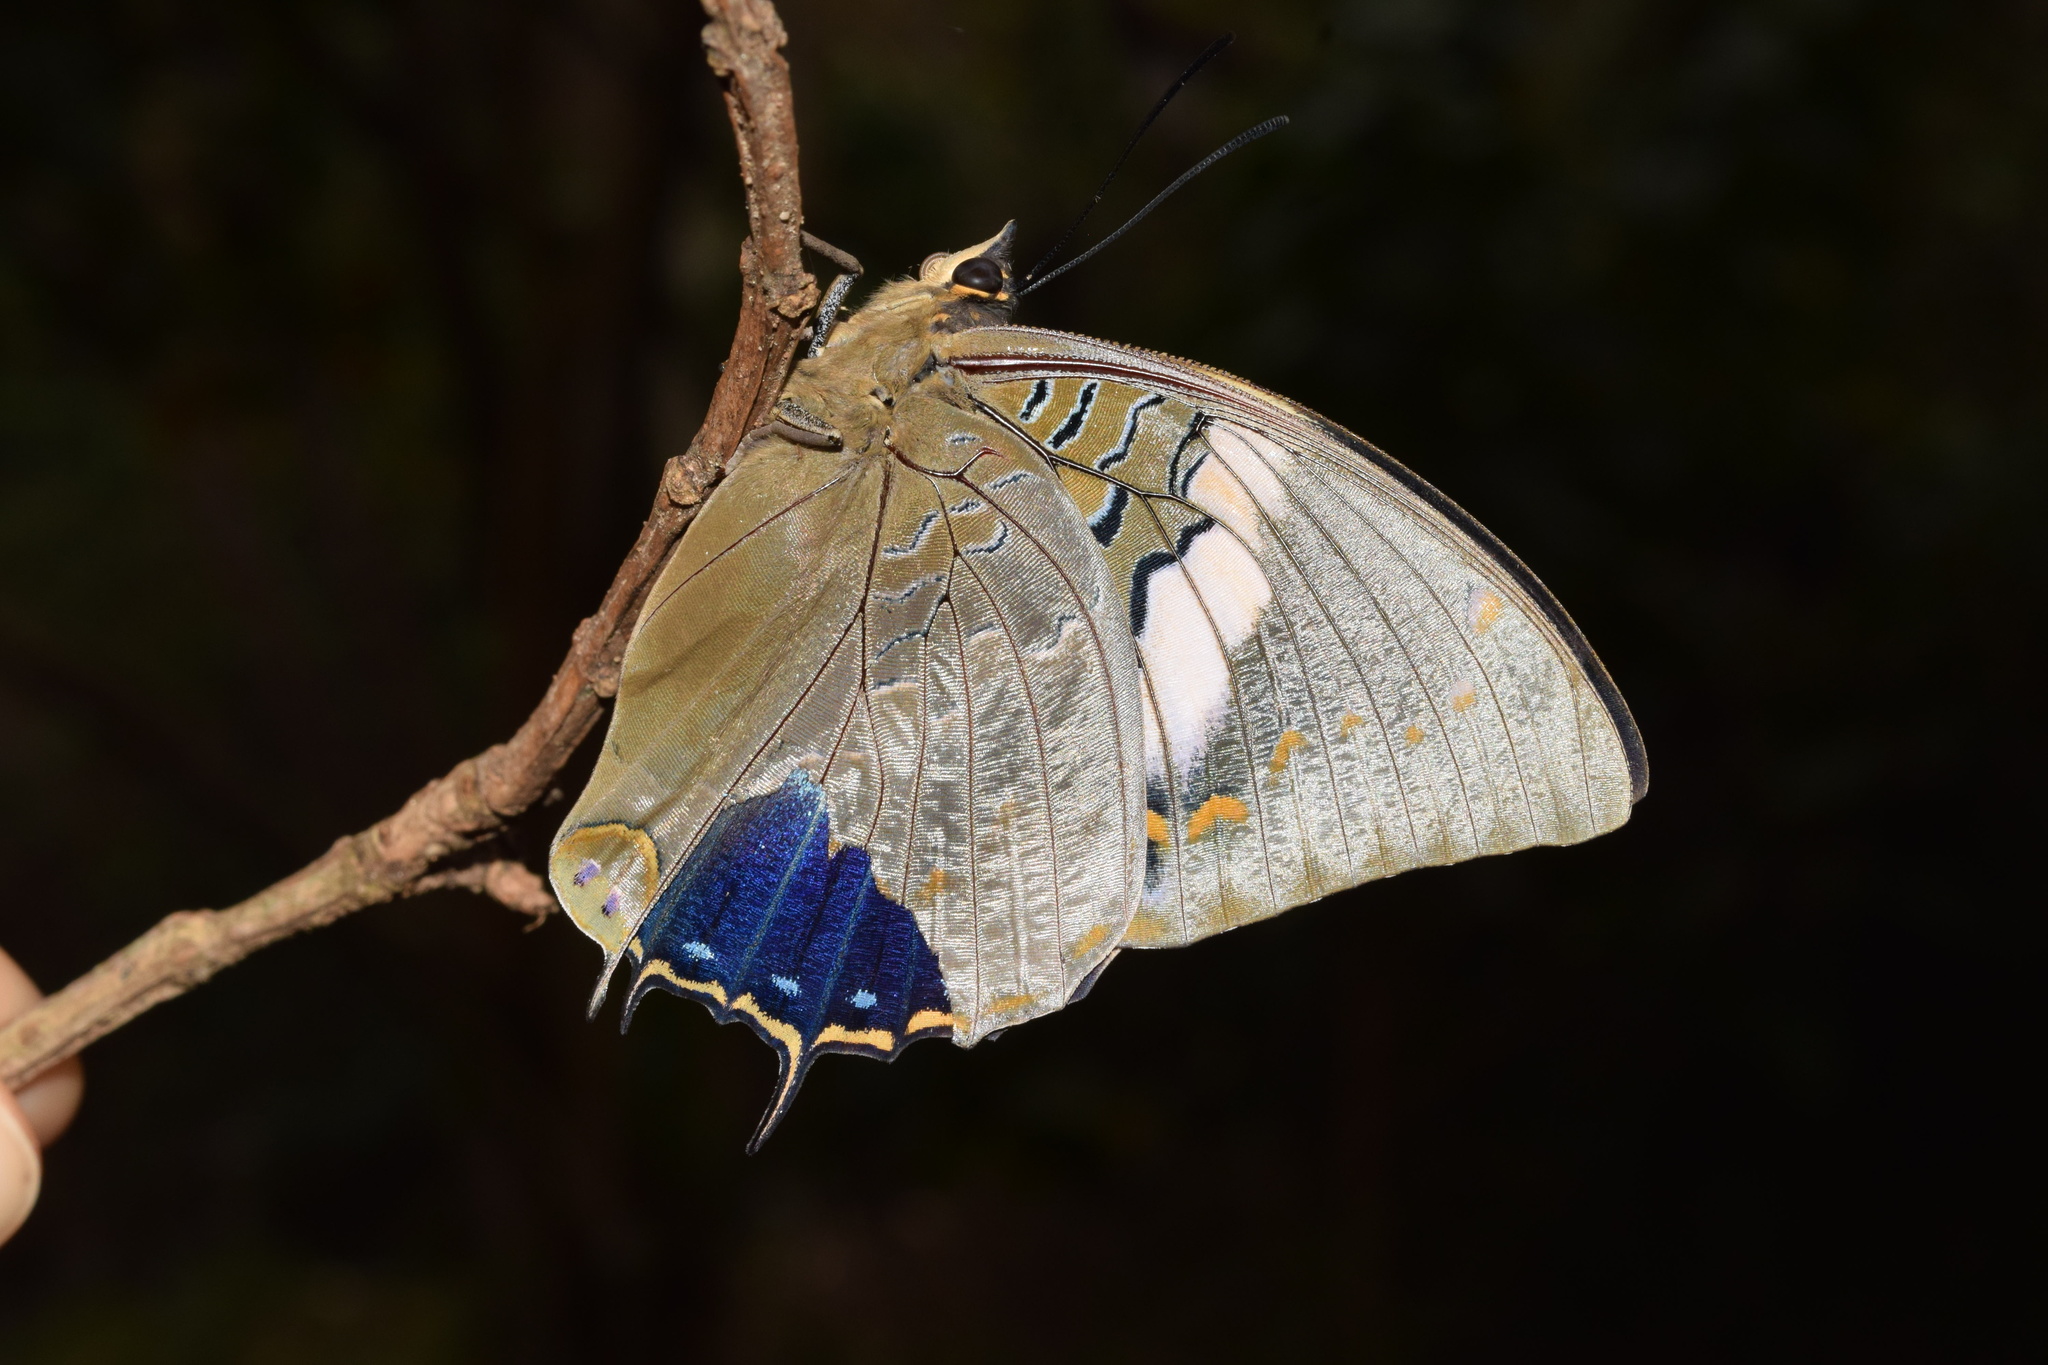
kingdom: Animalia
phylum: Arthropoda
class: Insecta
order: Lepidoptera
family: Nymphalidae
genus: Charaxes
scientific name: Charaxes cithaeron
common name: Blue-spotted charaxes
